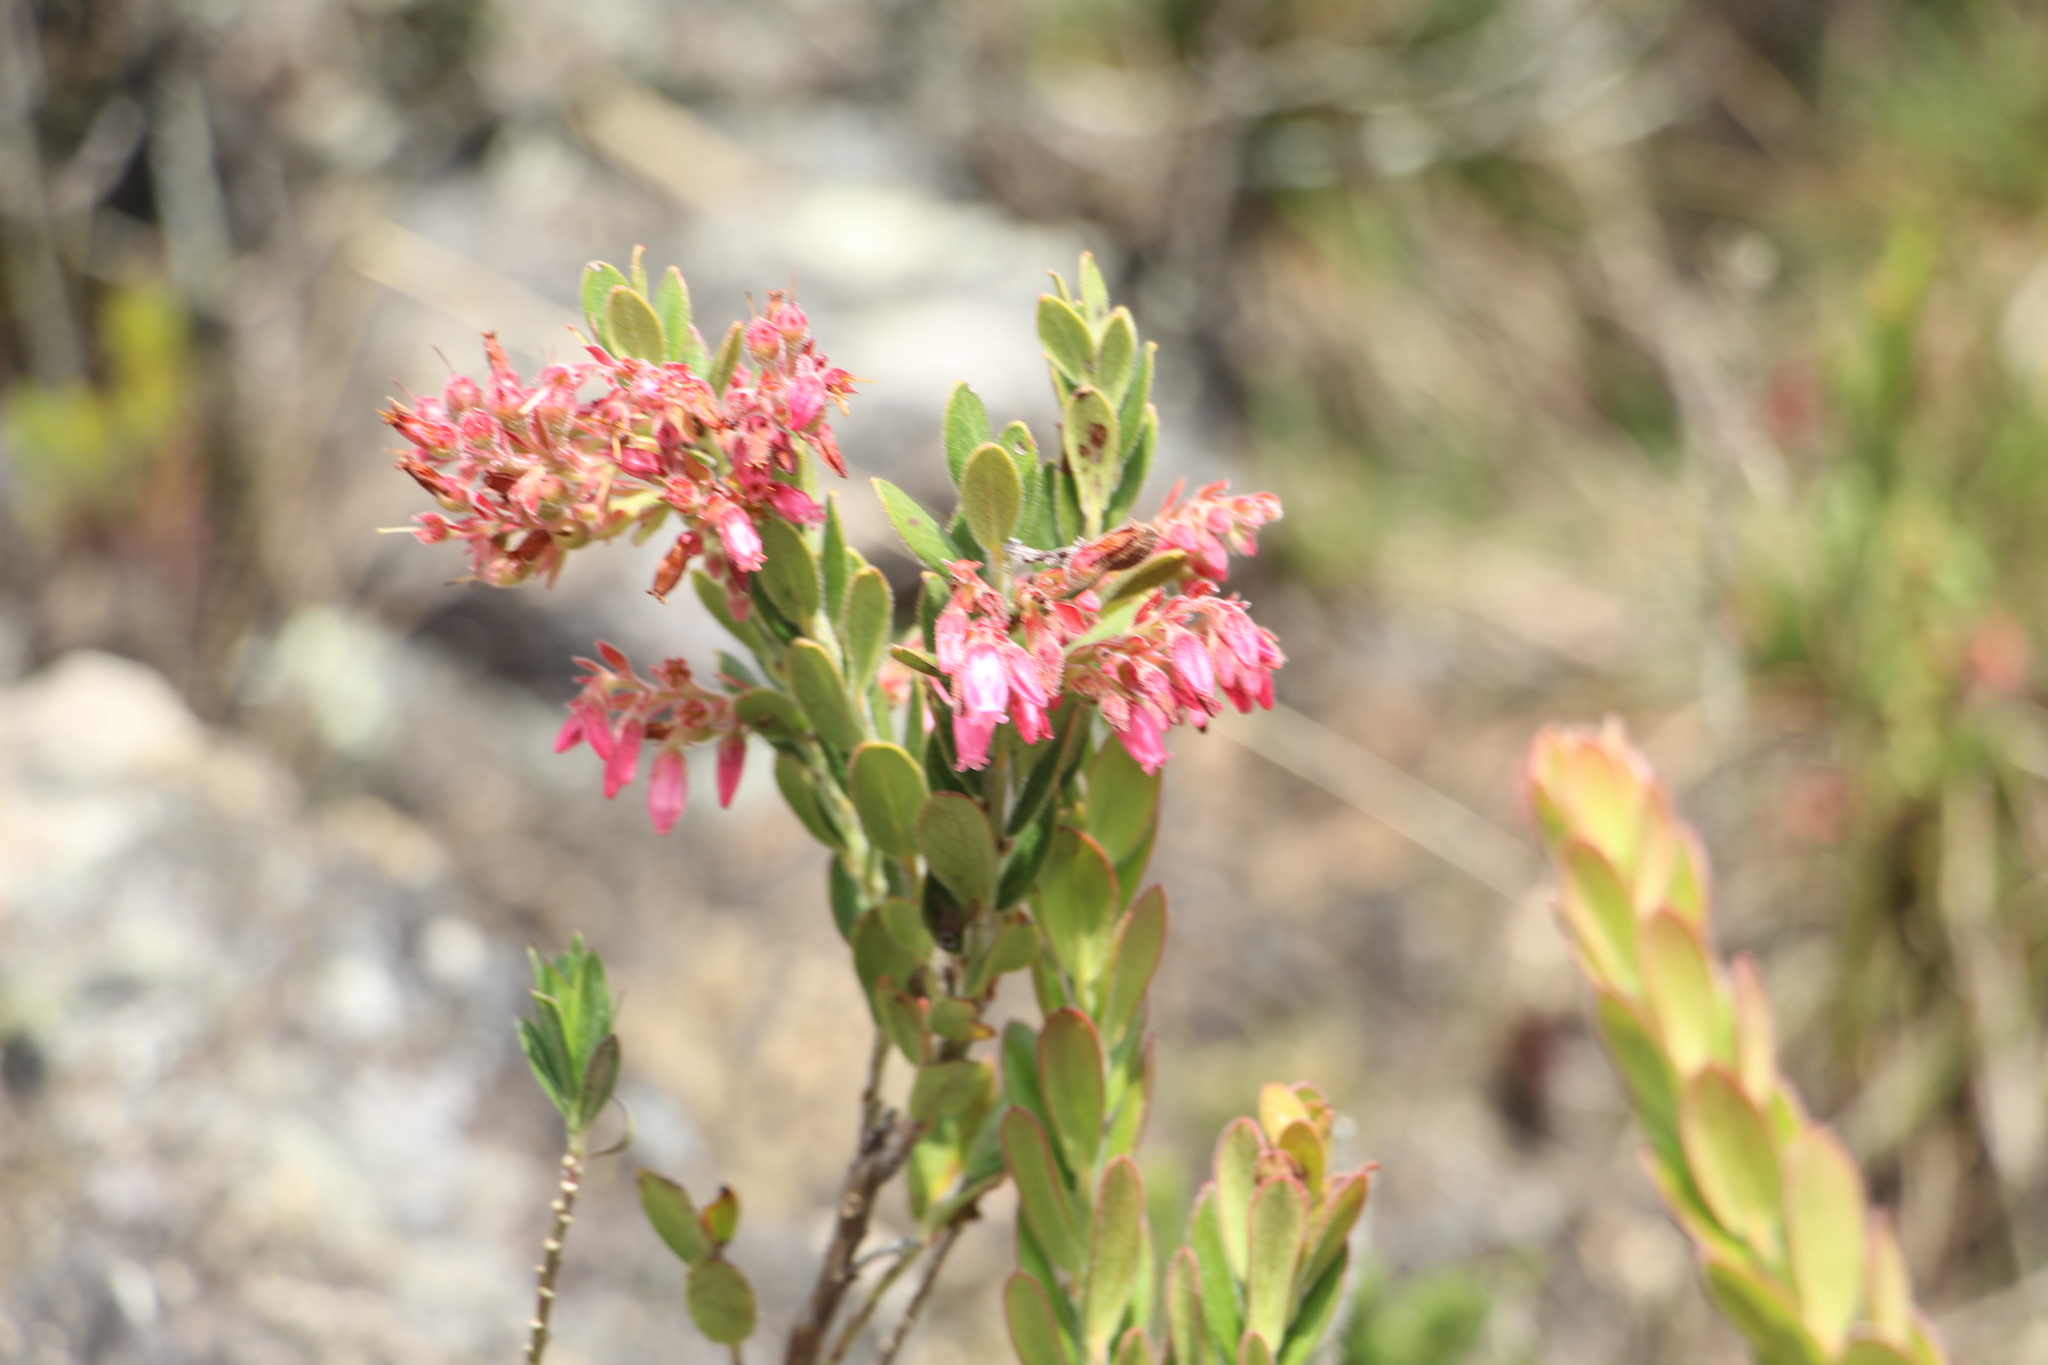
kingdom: Plantae
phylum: Tracheophyta
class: Magnoliopsida
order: Ericales
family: Ericaceae
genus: Gaylussacia
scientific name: Gaylussacia buxifolia
